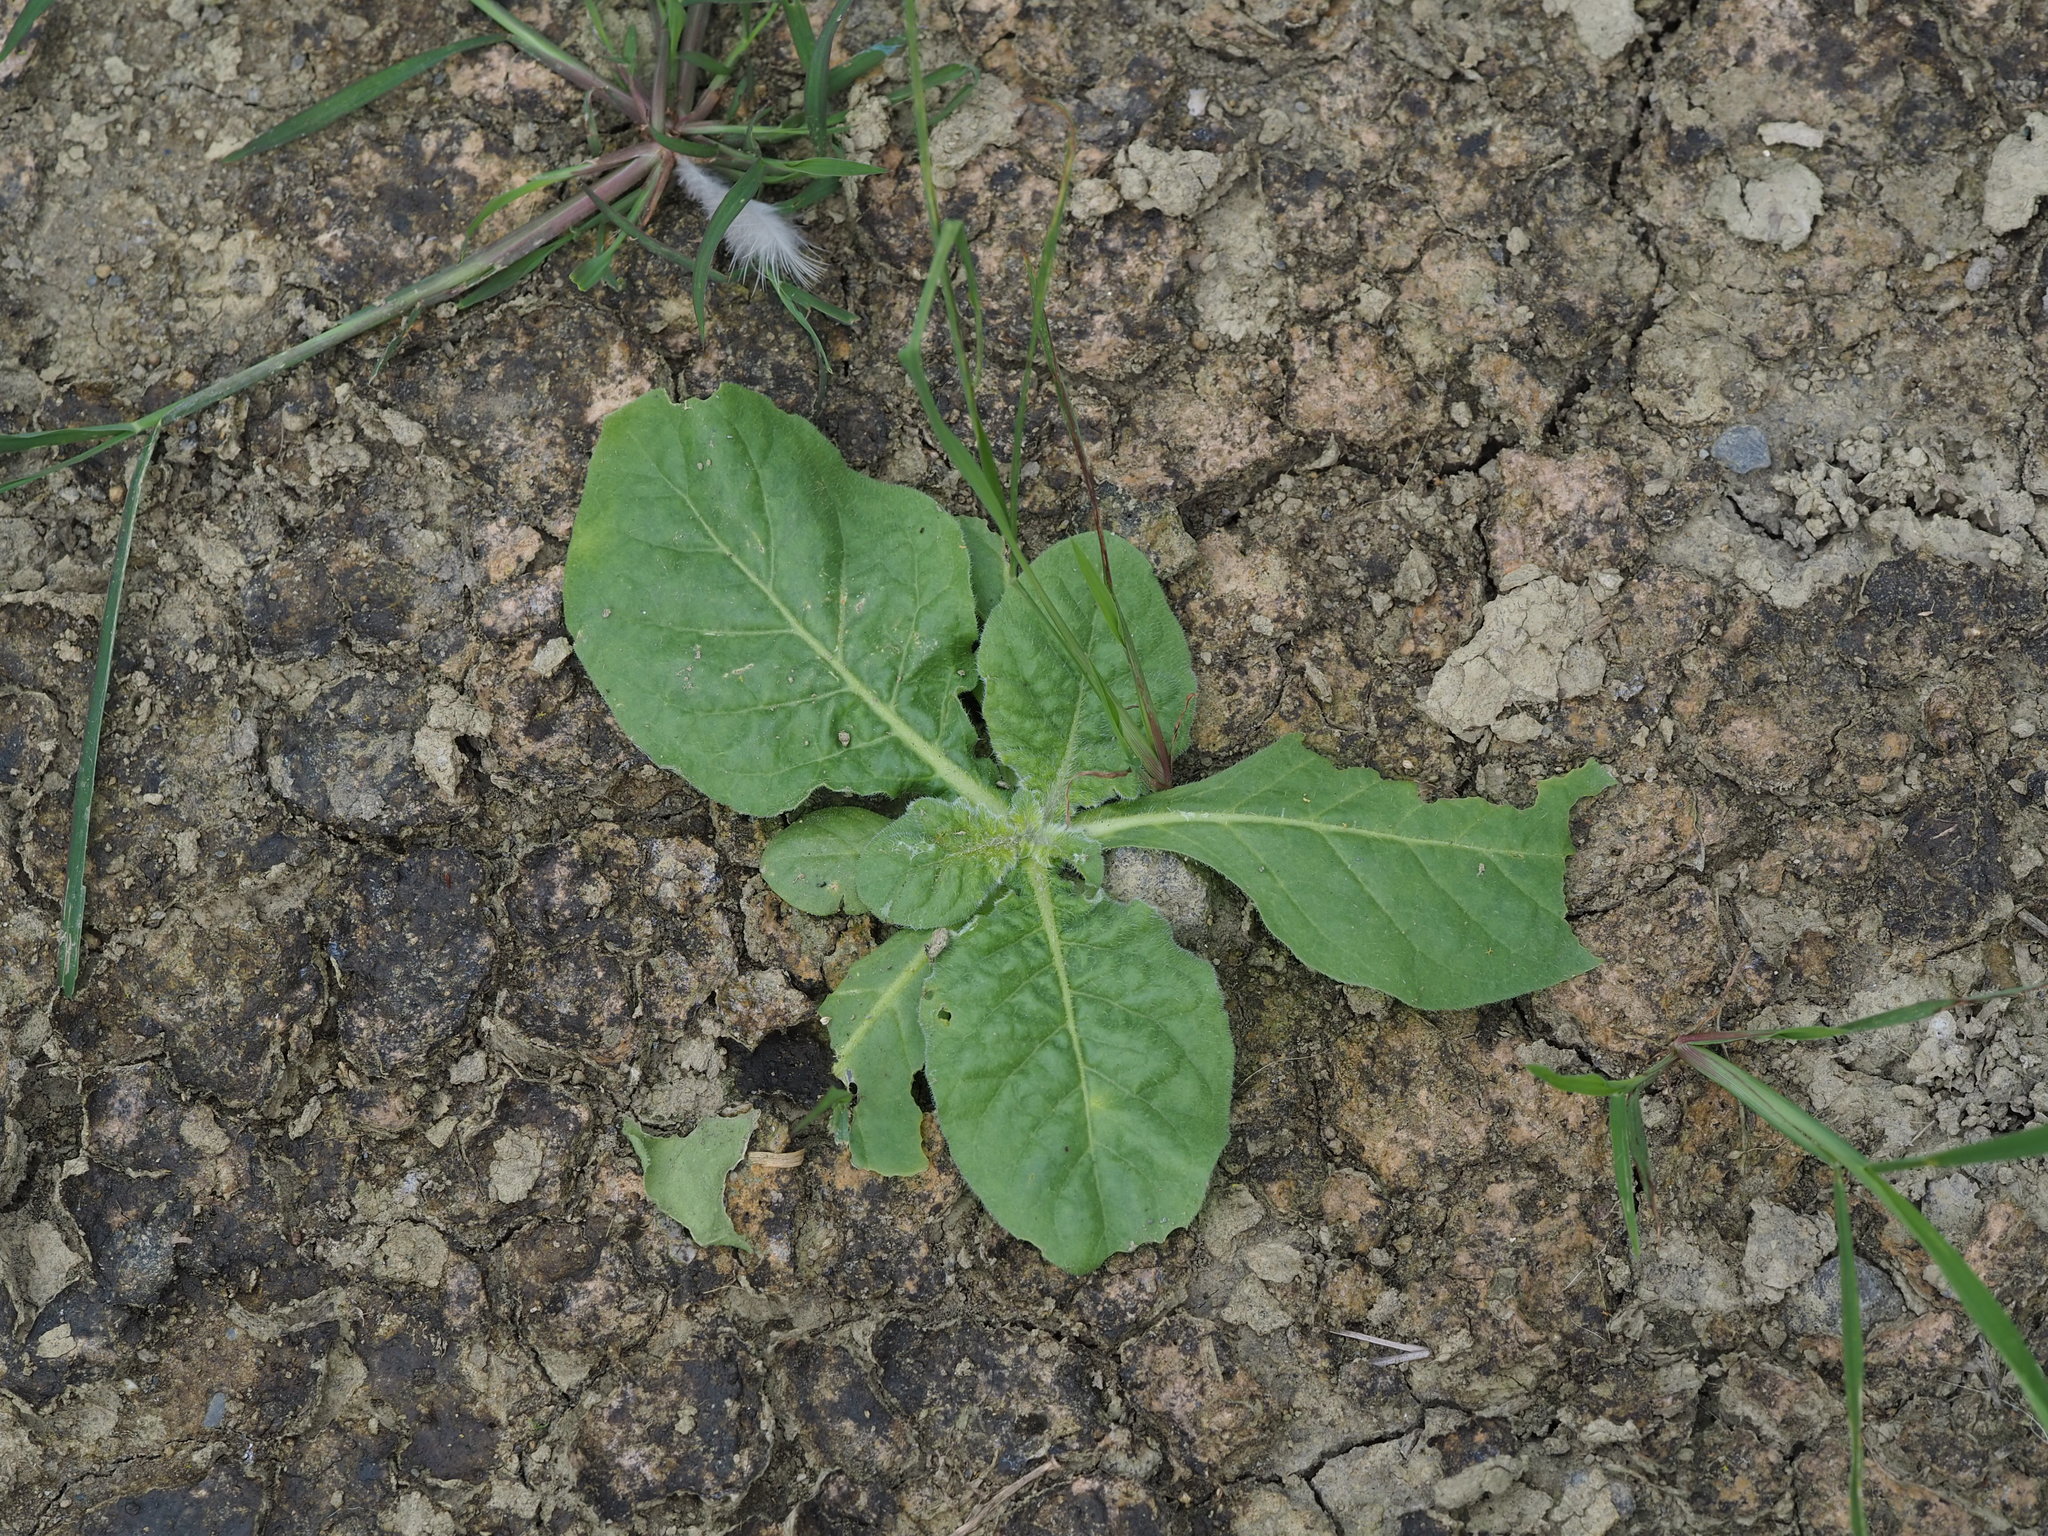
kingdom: Plantae
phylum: Tracheophyta
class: Magnoliopsida
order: Solanales
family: Solanaceae
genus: Nicotiana
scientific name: Nicotiana plumbaginifolia
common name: Tex-mex tobacco
